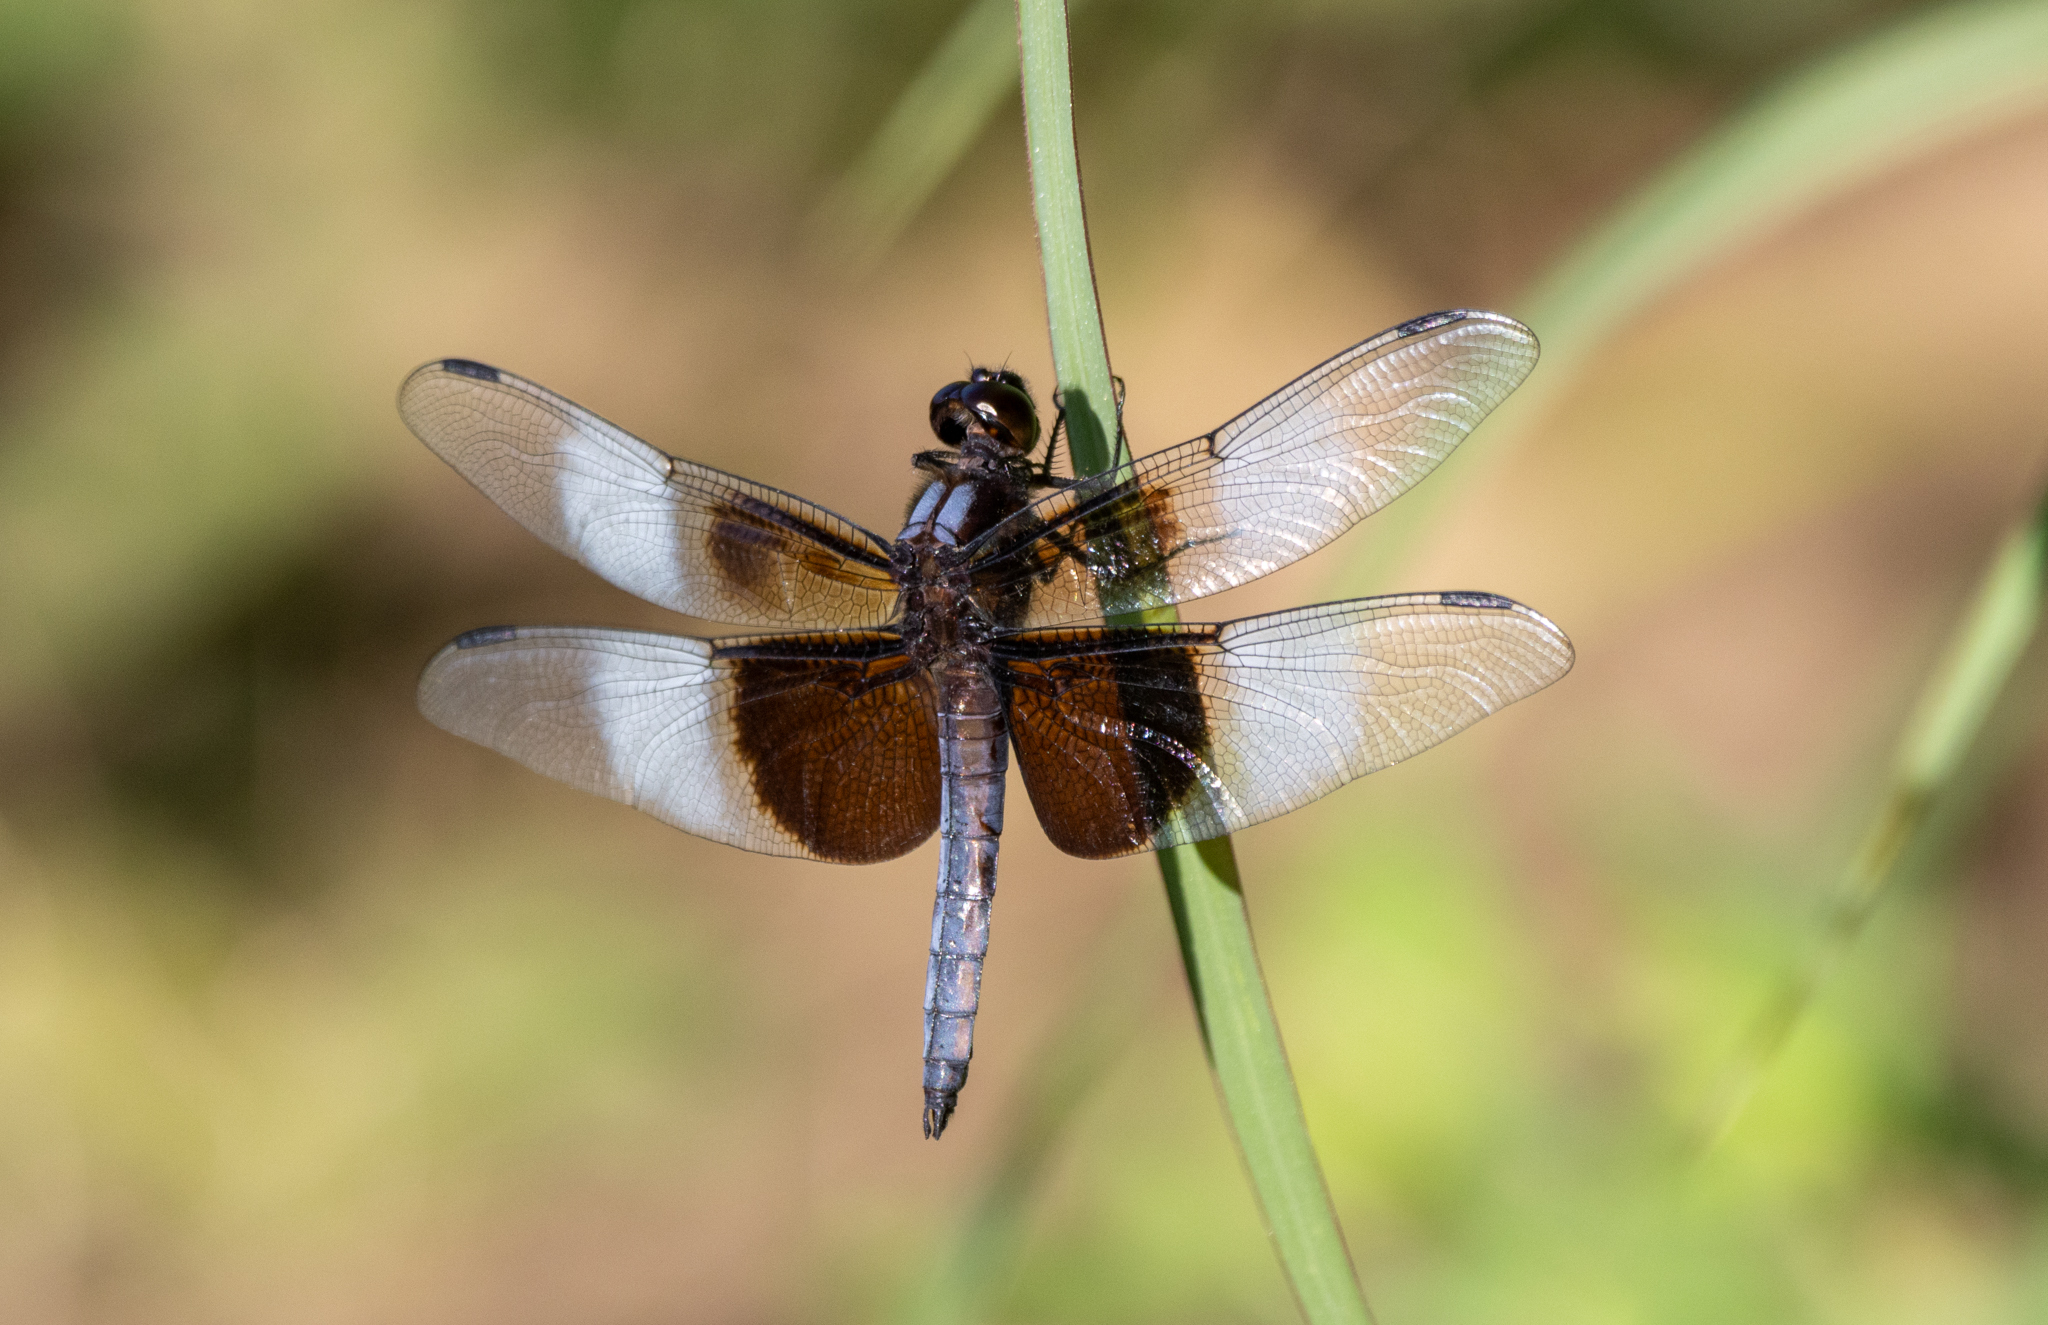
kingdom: Animalia
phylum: Arthropoda
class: Insecta
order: Odonata
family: Libellulidae
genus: Libellula
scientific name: Libellula luctuosa
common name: Widow skimmer
